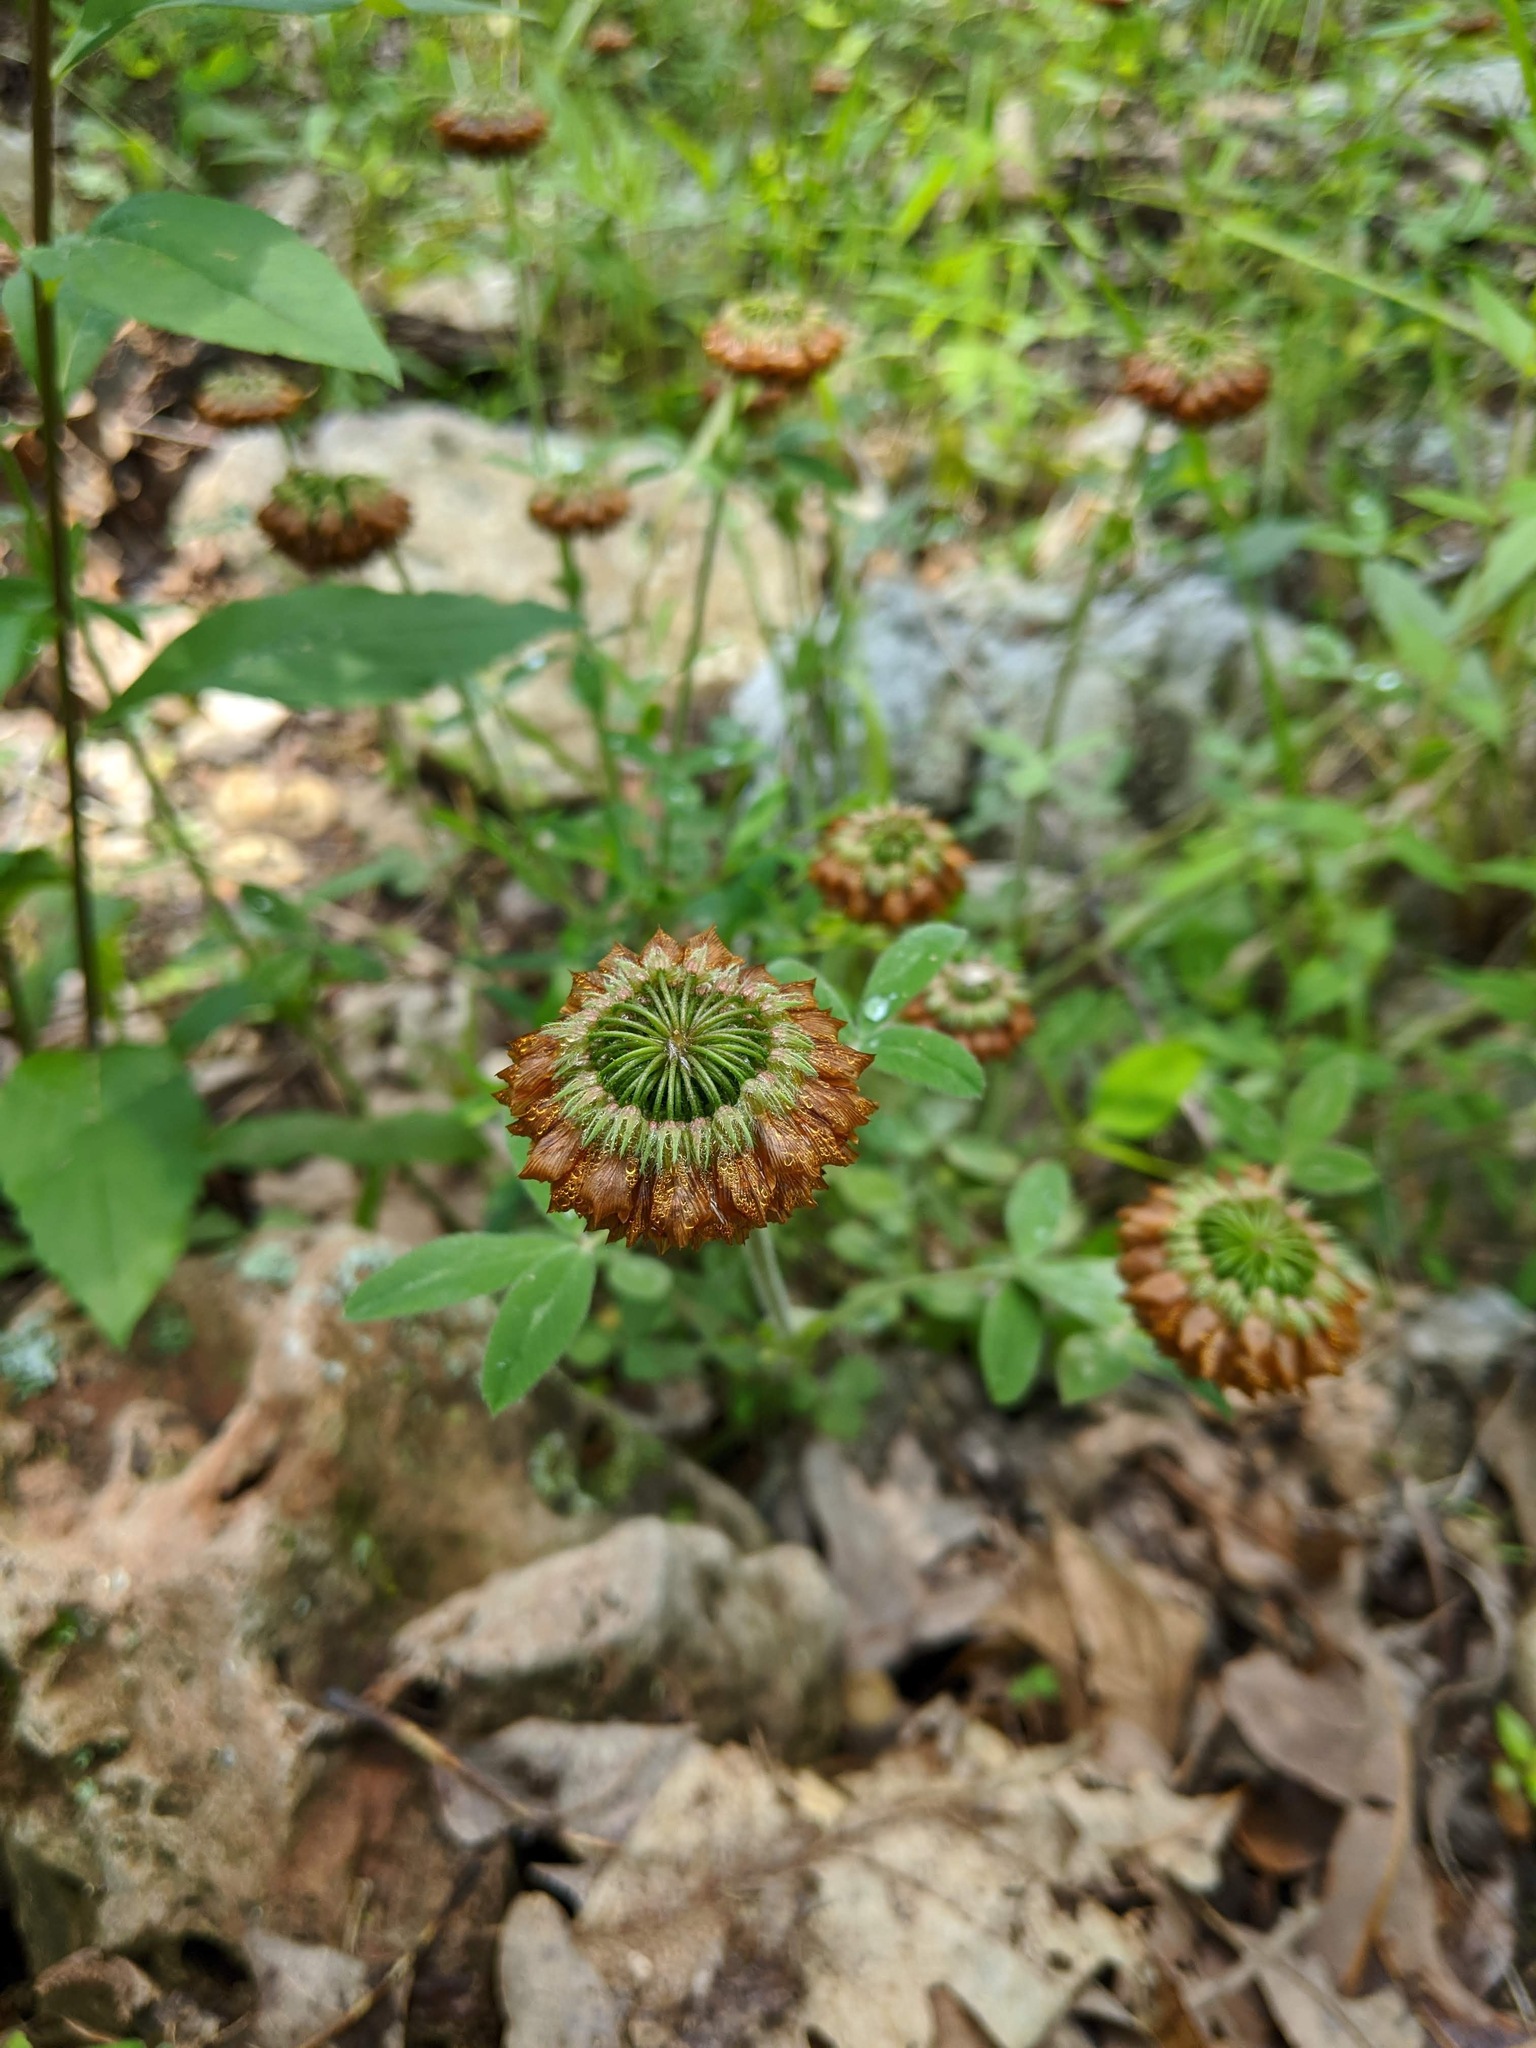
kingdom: Plantae
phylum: Tracheophyta
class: Magnoliopsida
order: Fabales
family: Fabaceae
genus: Trifolium
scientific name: Trifolium reflexum
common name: Buffalo clover
